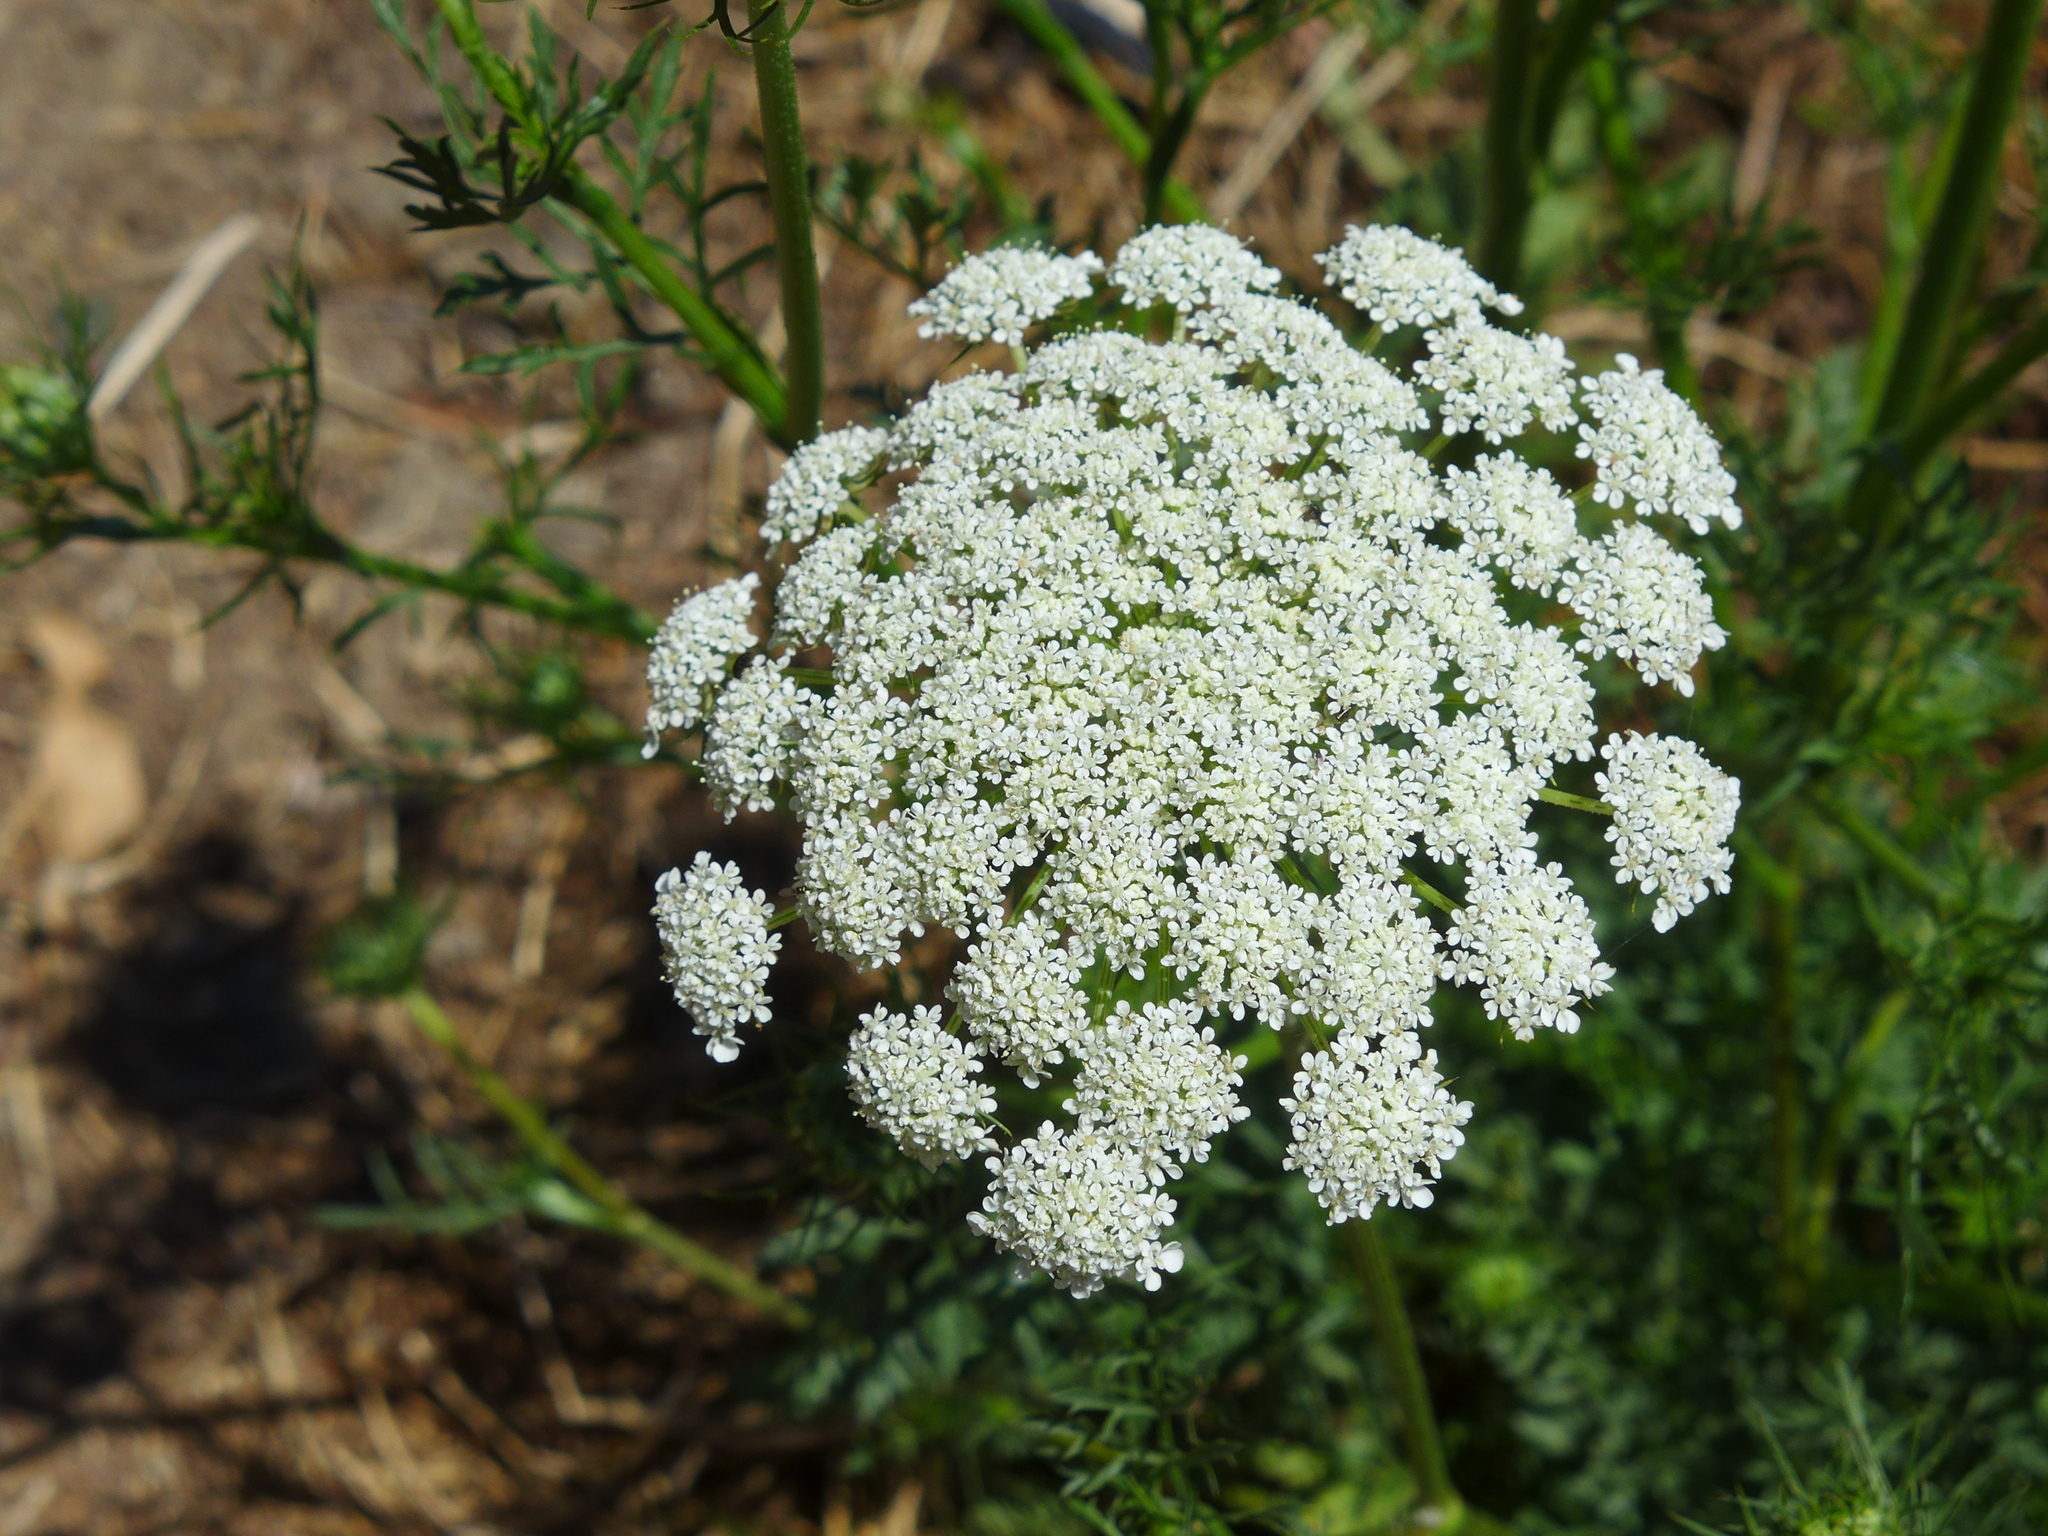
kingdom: Plantae
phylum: Tracheophyta
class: Magnoliopsida
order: Apiales
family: Apiaceae
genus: Daucus
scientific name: Daucus carota
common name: Wild carrot
